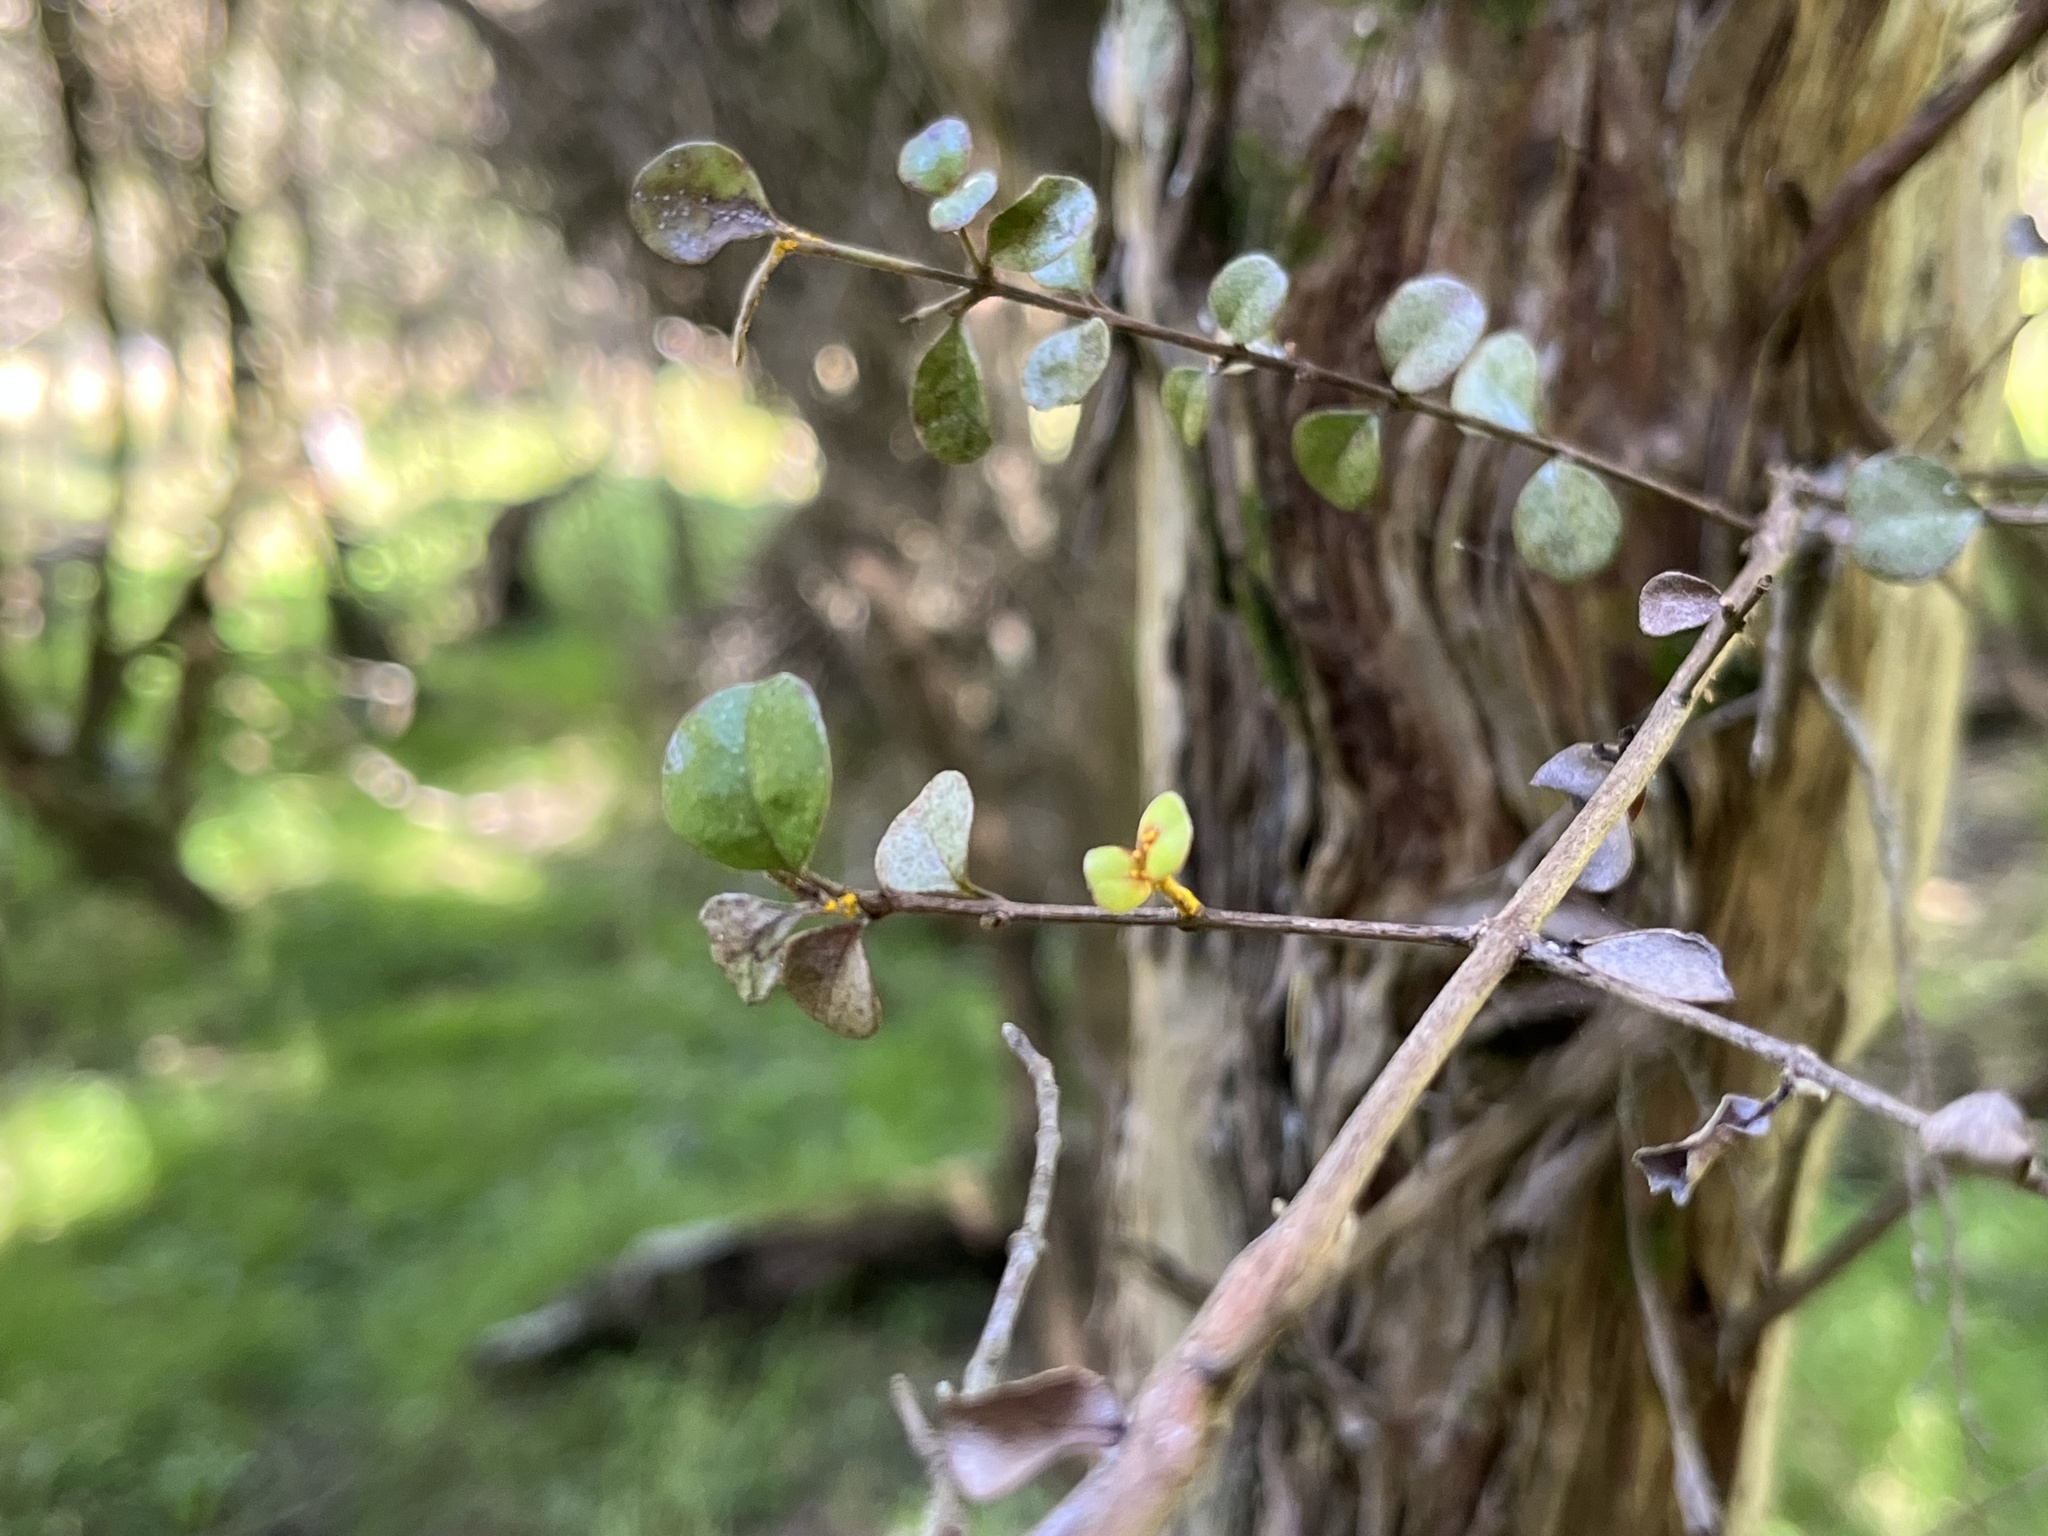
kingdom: Fungi
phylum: Basidiomycota
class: Pucciniomycetes
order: Pucciniales
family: Sphaerophragmiaceae
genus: Austropuccinia
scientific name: Austropuccinia psidii
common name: Myrtle rust
